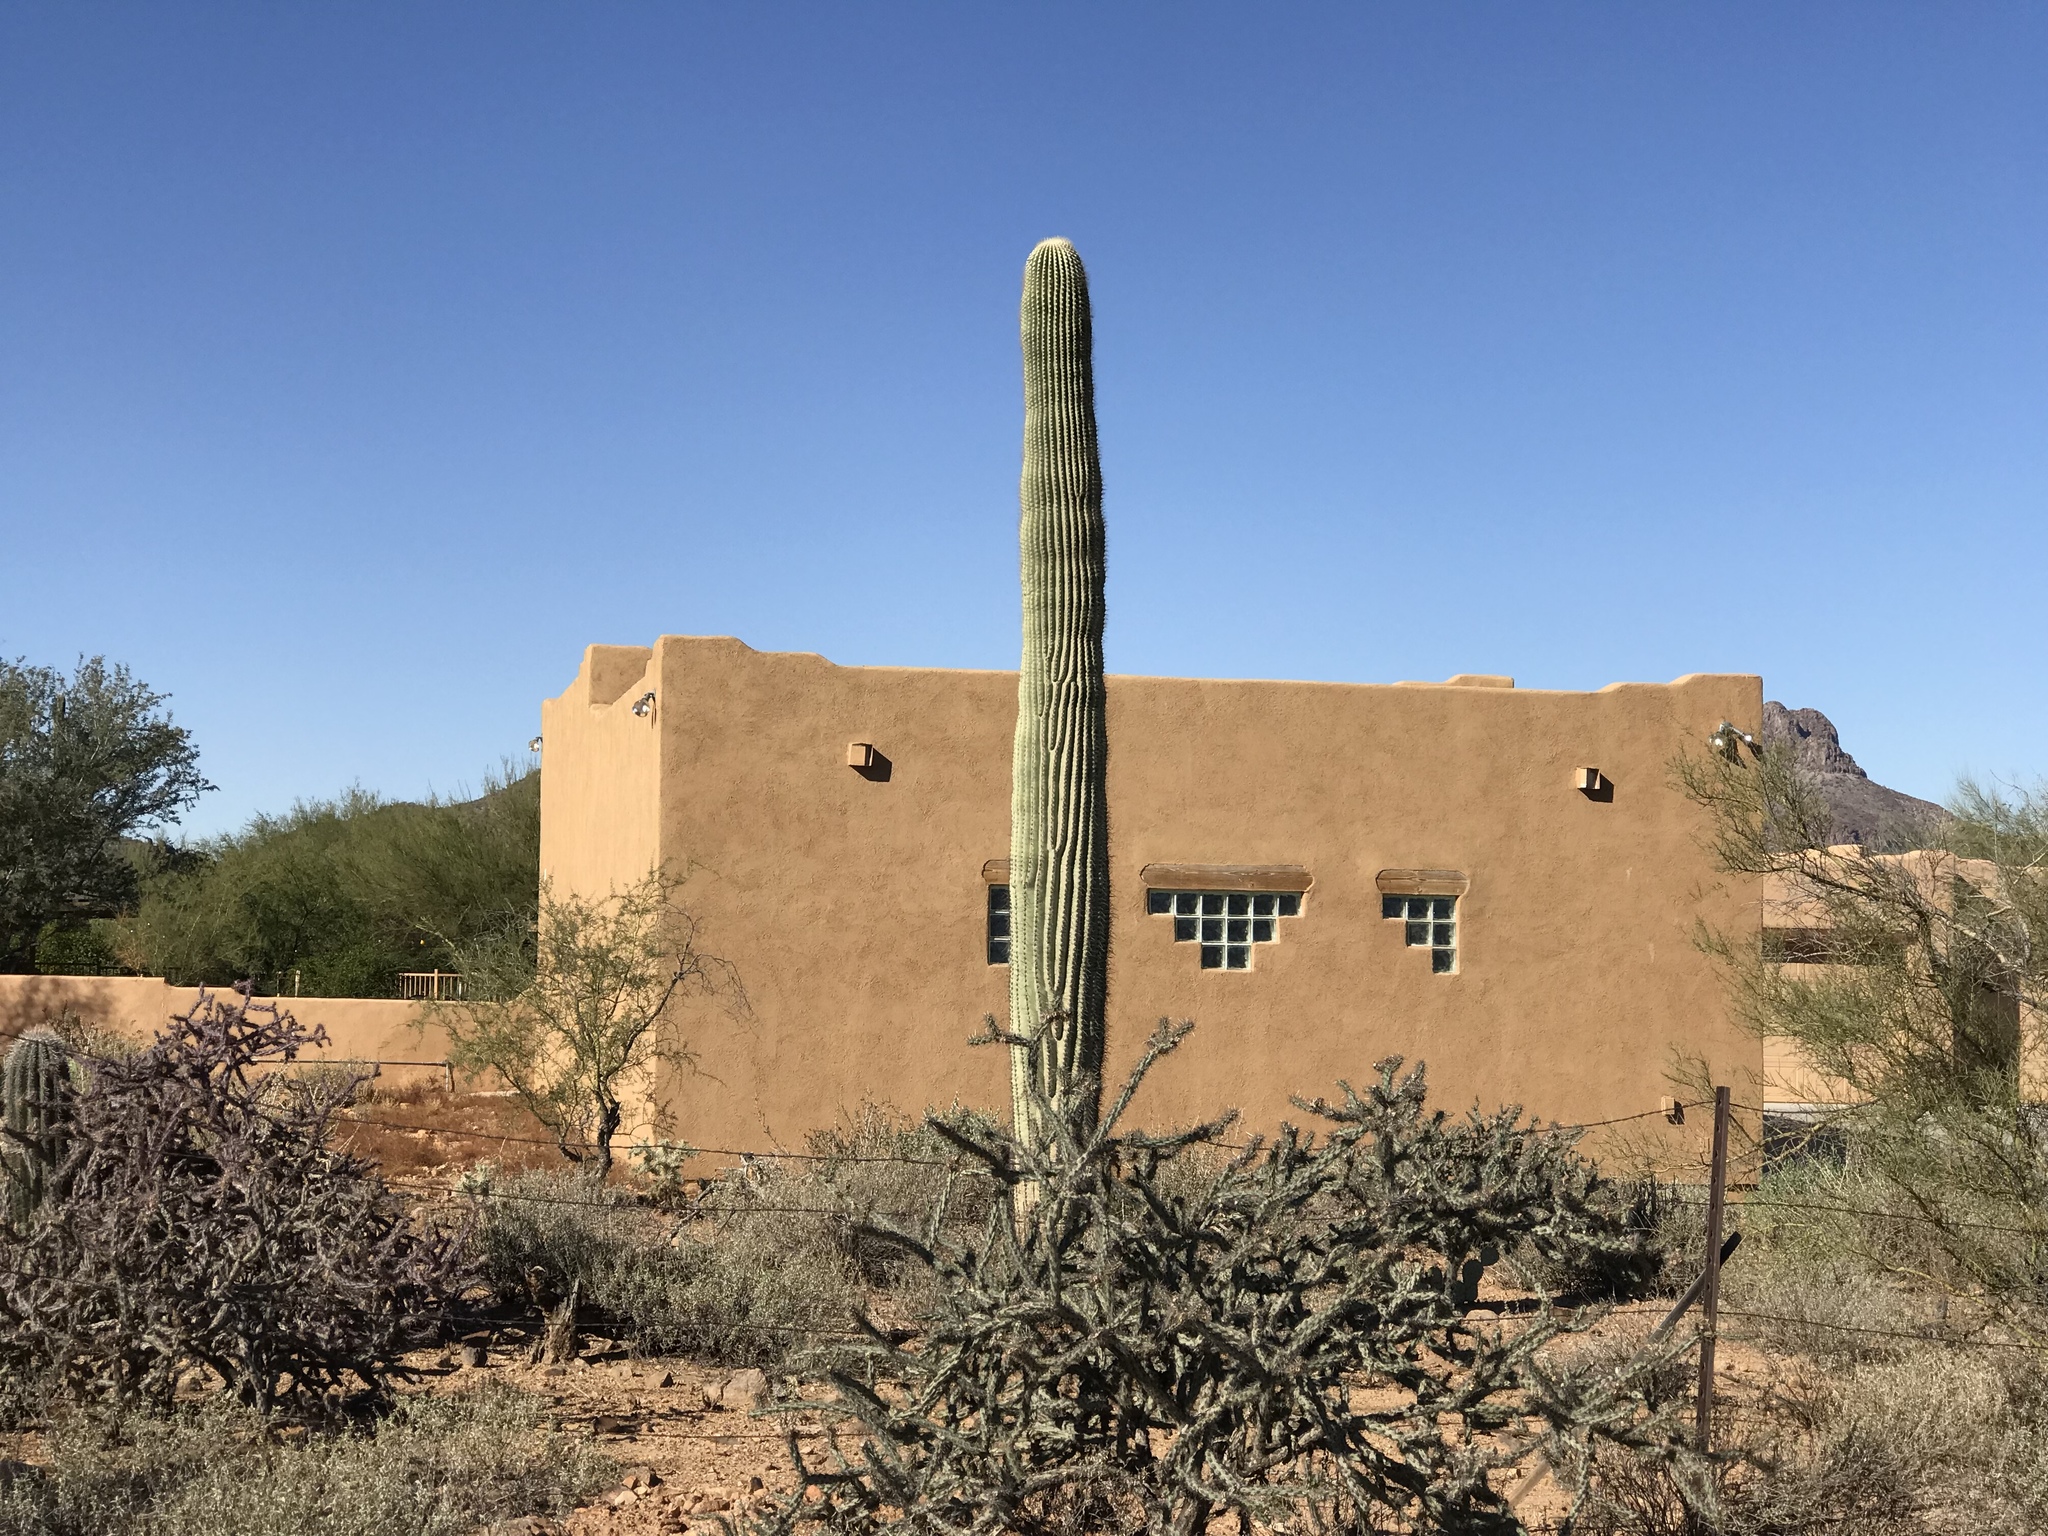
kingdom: Plantae
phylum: Tracheophyta
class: Magnoliopsida
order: Caryophyllales
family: Cactaceae
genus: Carnegiea
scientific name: Carnegiea gigantea
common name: Saguaro
